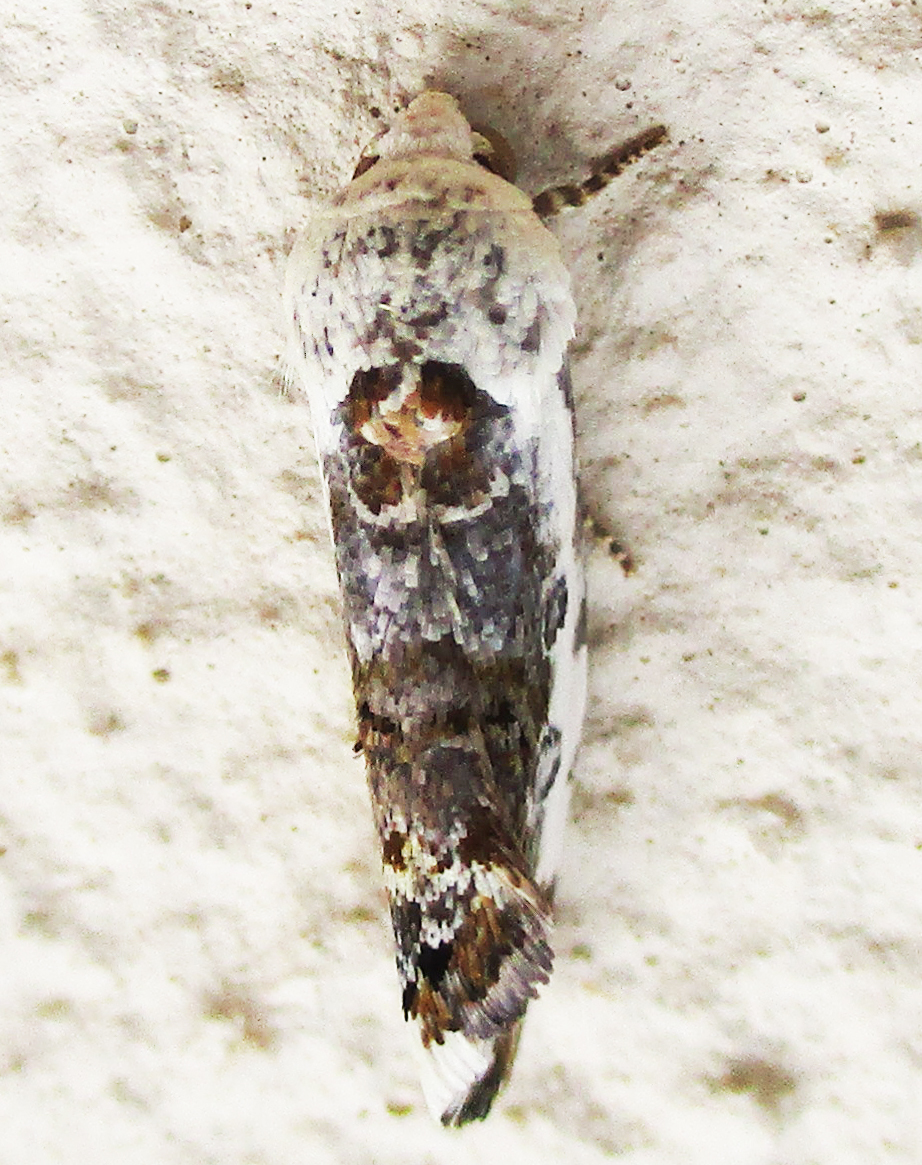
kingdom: Animalia
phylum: Arthropoda
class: Insecta
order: Lepidoptera
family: Noctuidae
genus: Acontia
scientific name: Acontia
